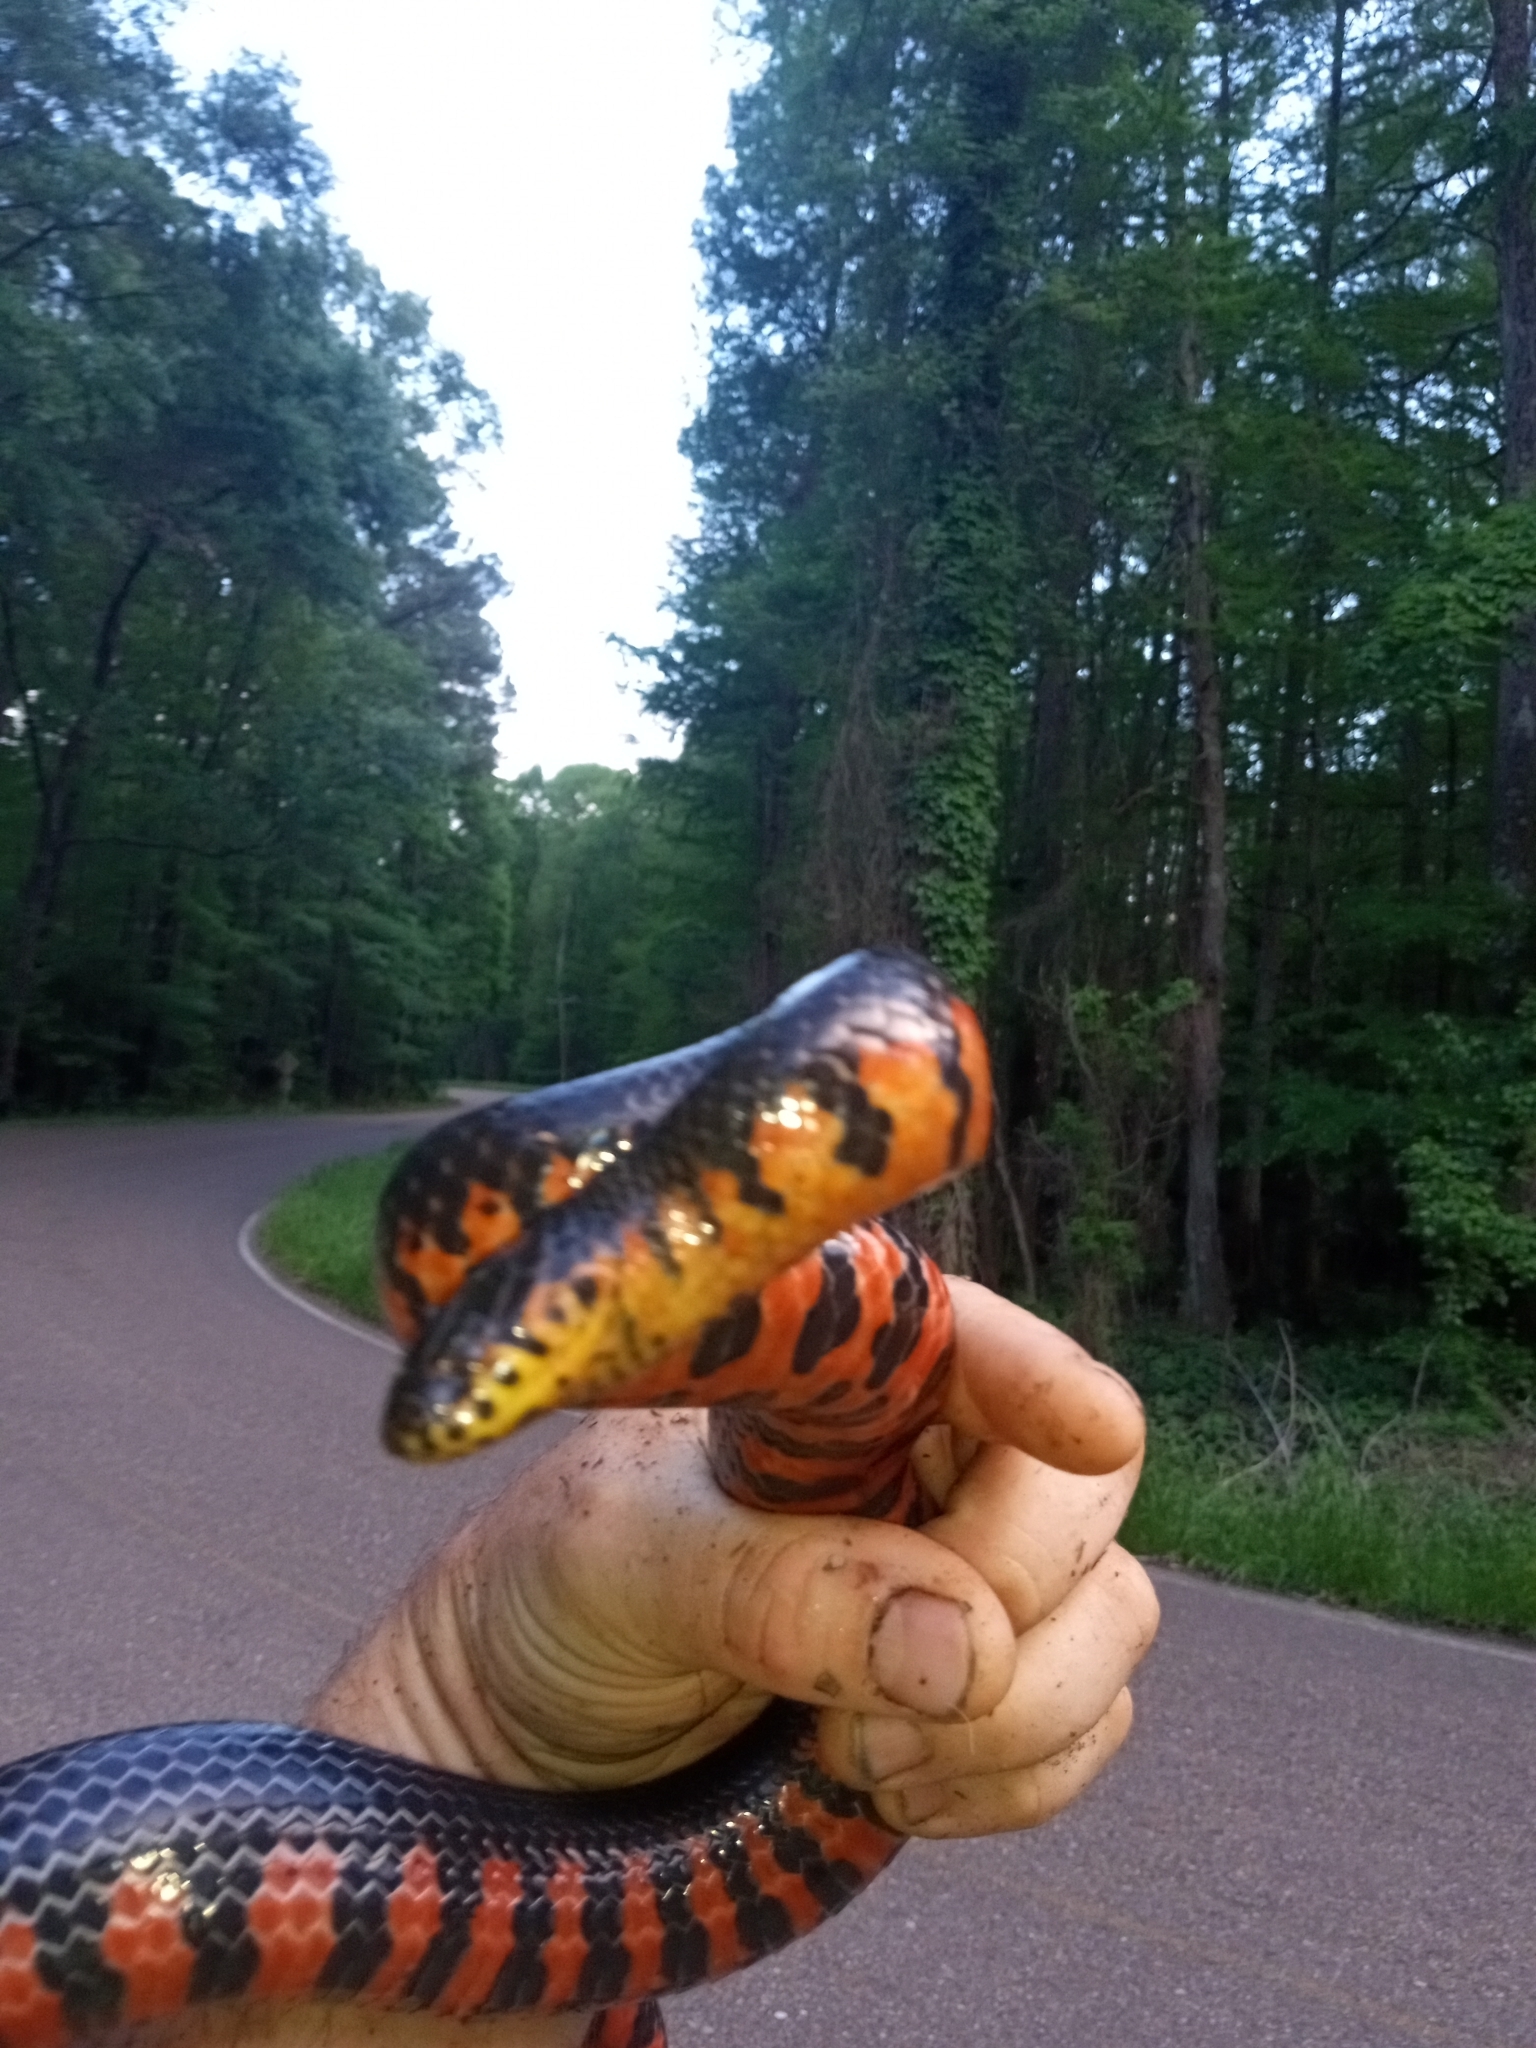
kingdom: Animalia
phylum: Chordata
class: Squamata
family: Colubridae
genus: Farancia
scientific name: Farancia abacura
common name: Mud snake
